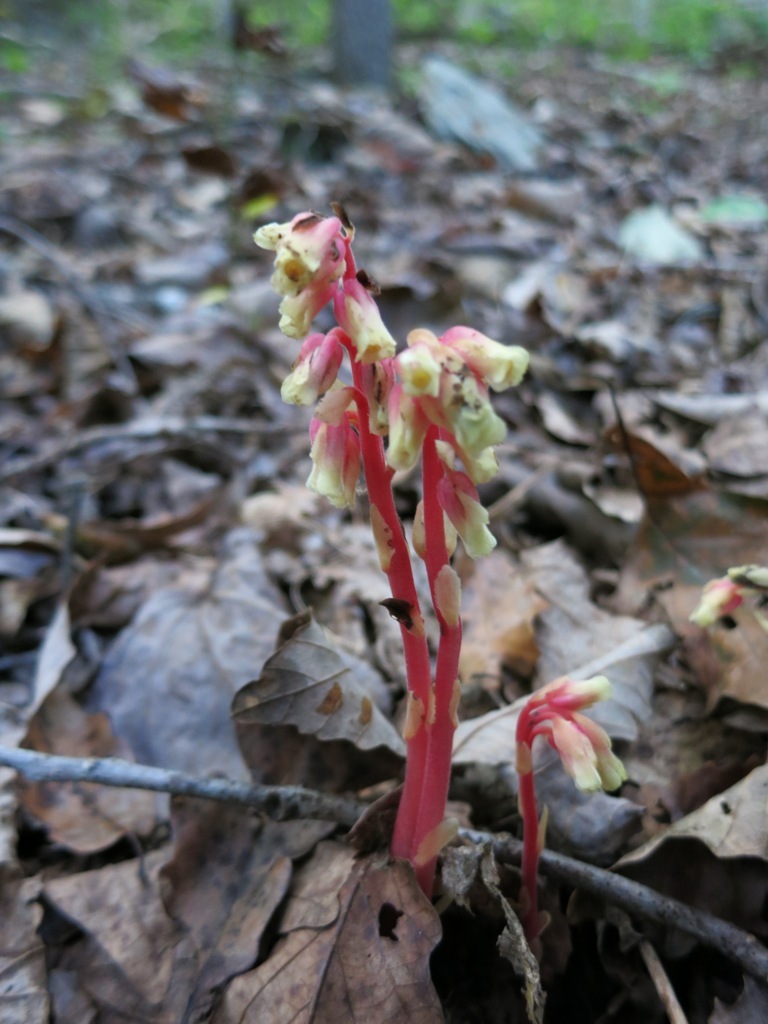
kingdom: Plantae
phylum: Tracheophyta
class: Magnoliopsida
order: Ericales
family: Ericaceae
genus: Hypopitys
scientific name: Hypopitys monotropa
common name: Yellow bird's-nest
